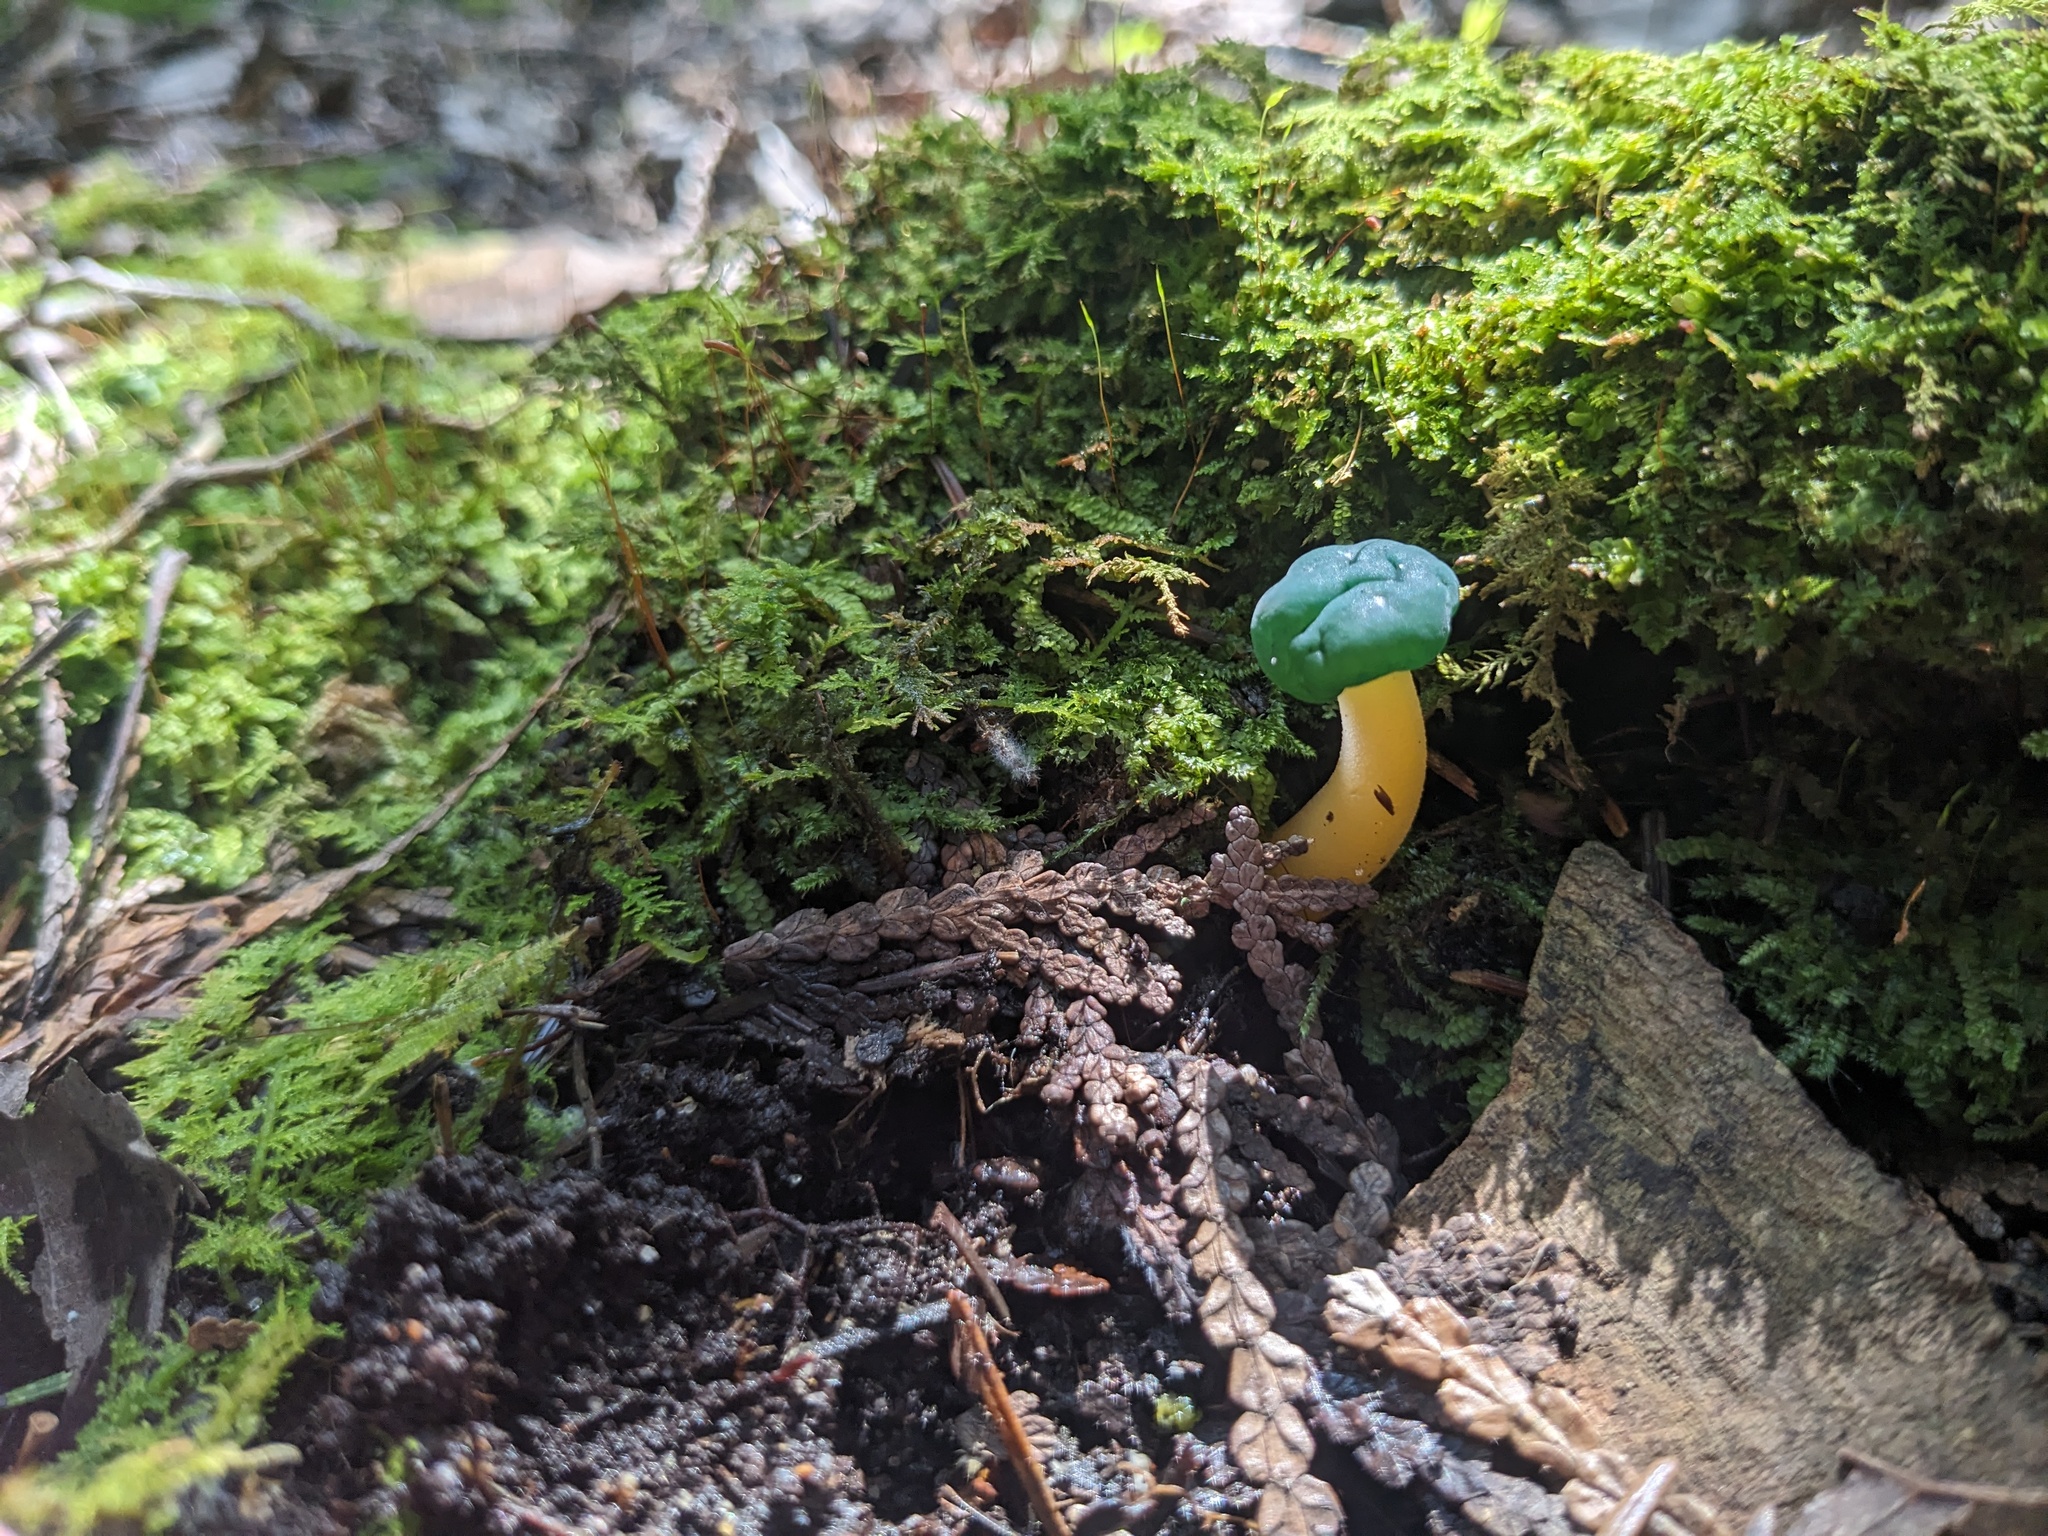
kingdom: Fungi
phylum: Ascomycota
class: Leotiomycetes
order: Leotiales
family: Leotiaceae
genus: Leotia
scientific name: Leotia lubrica
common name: Jellybaby
